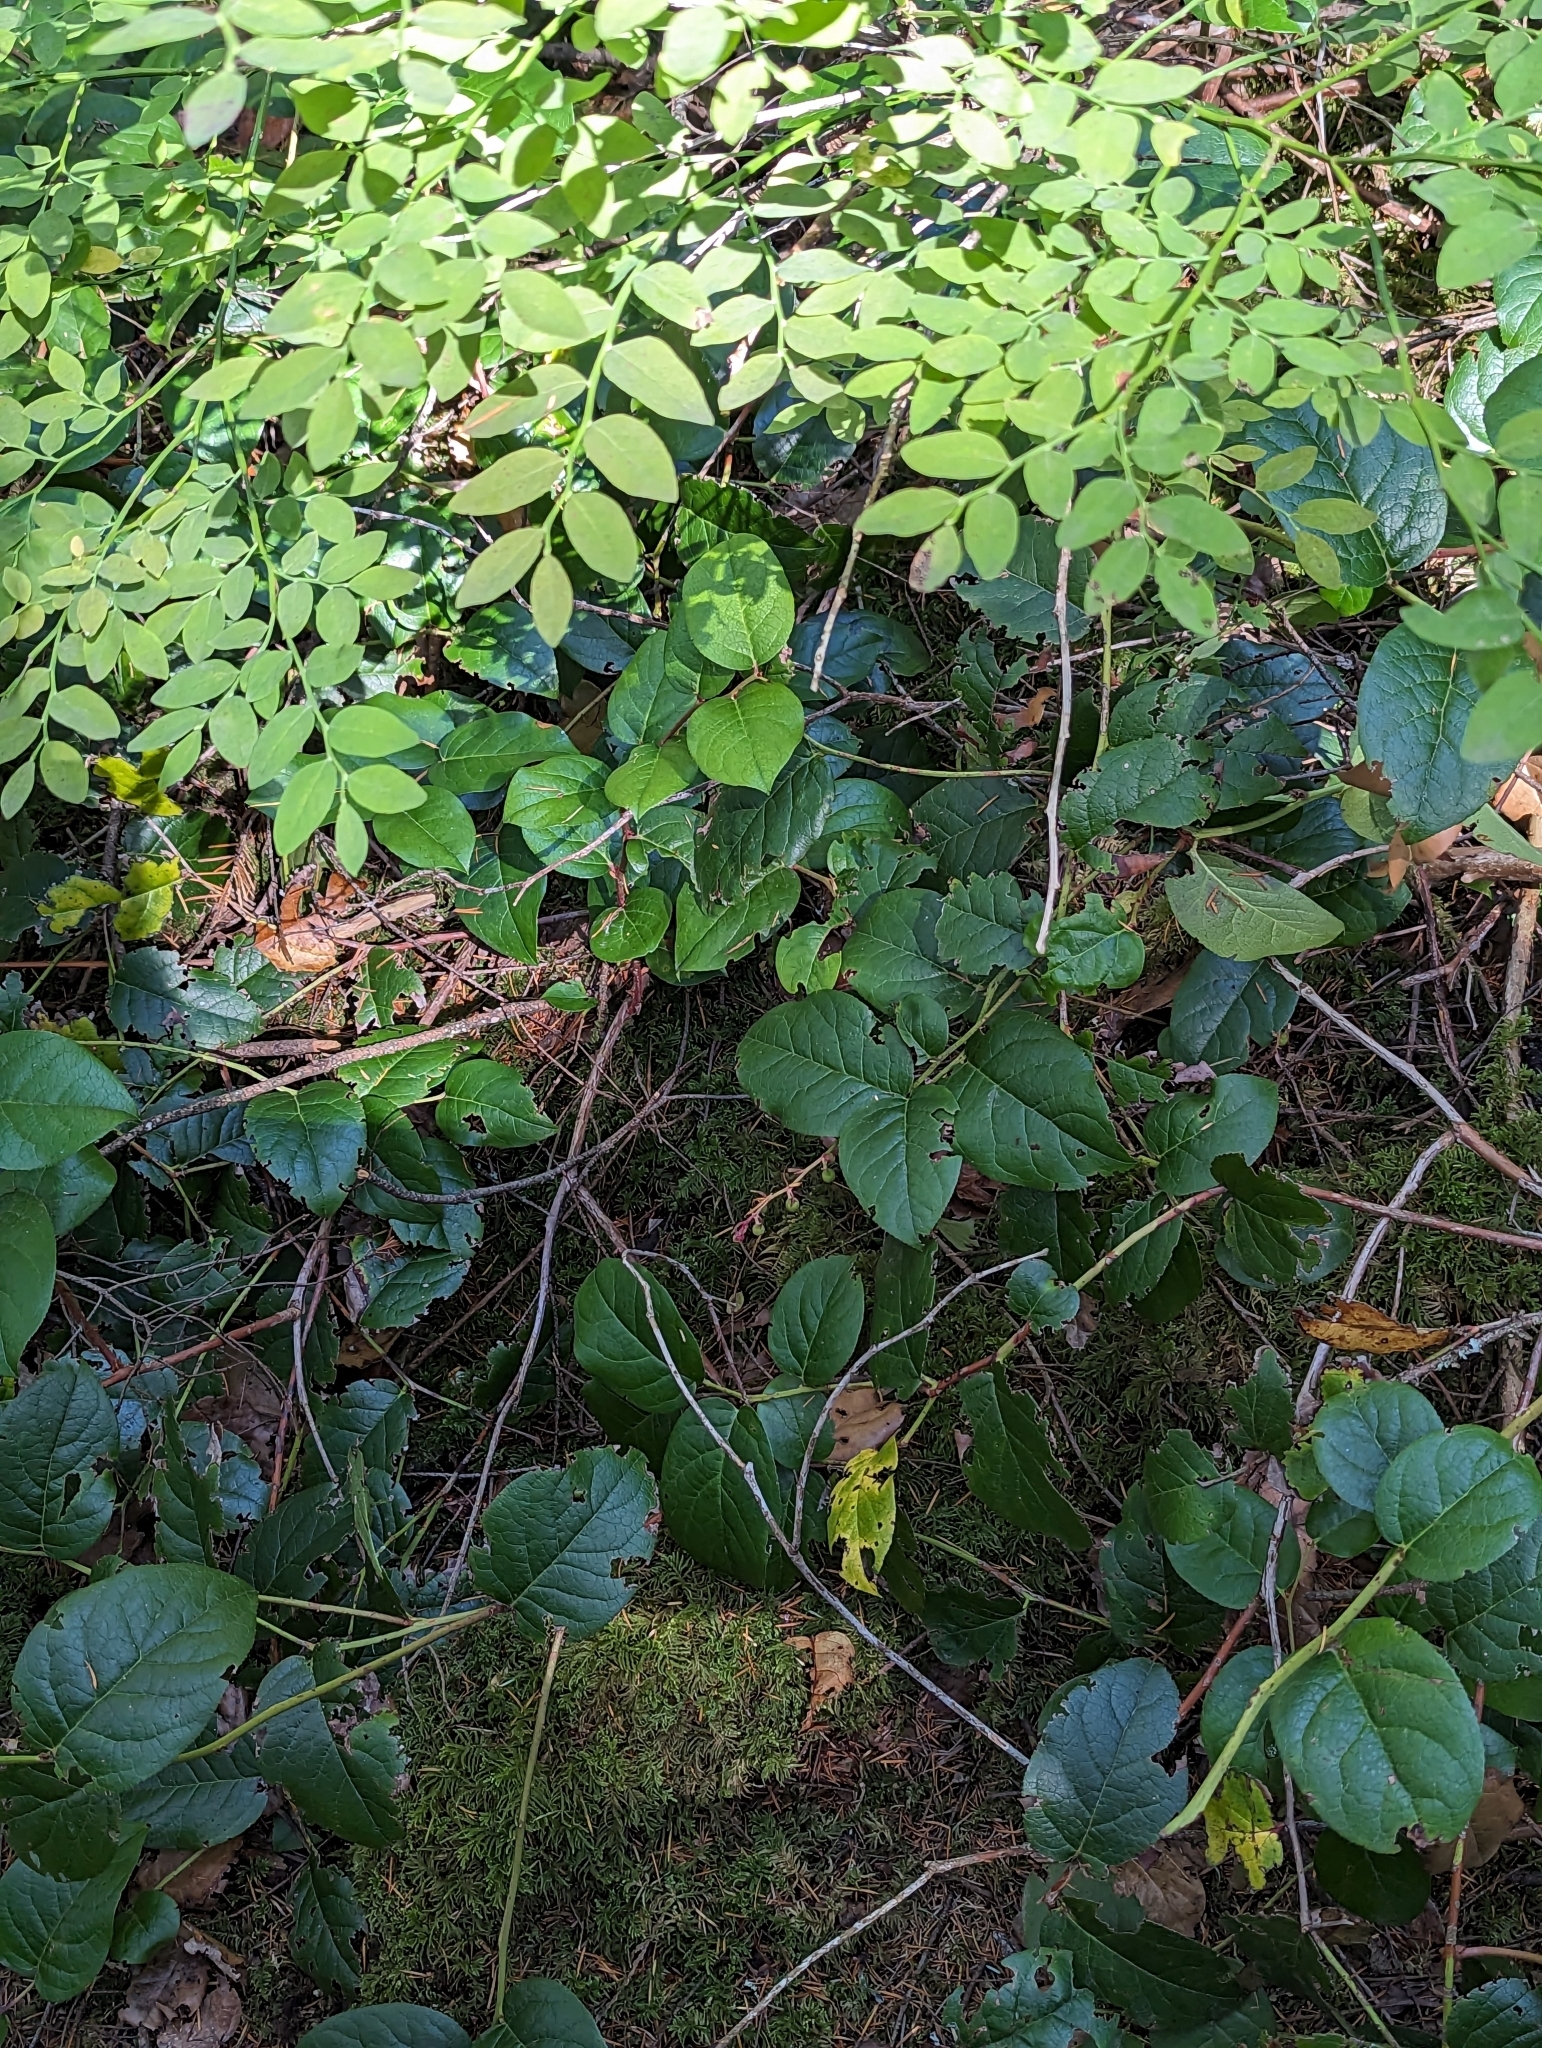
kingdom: Plantae
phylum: Tracheophyta
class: Magnoliopsida
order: Ericales
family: Ericaceae
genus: Gaultheria
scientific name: Gaultheria shallon
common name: Shallon
